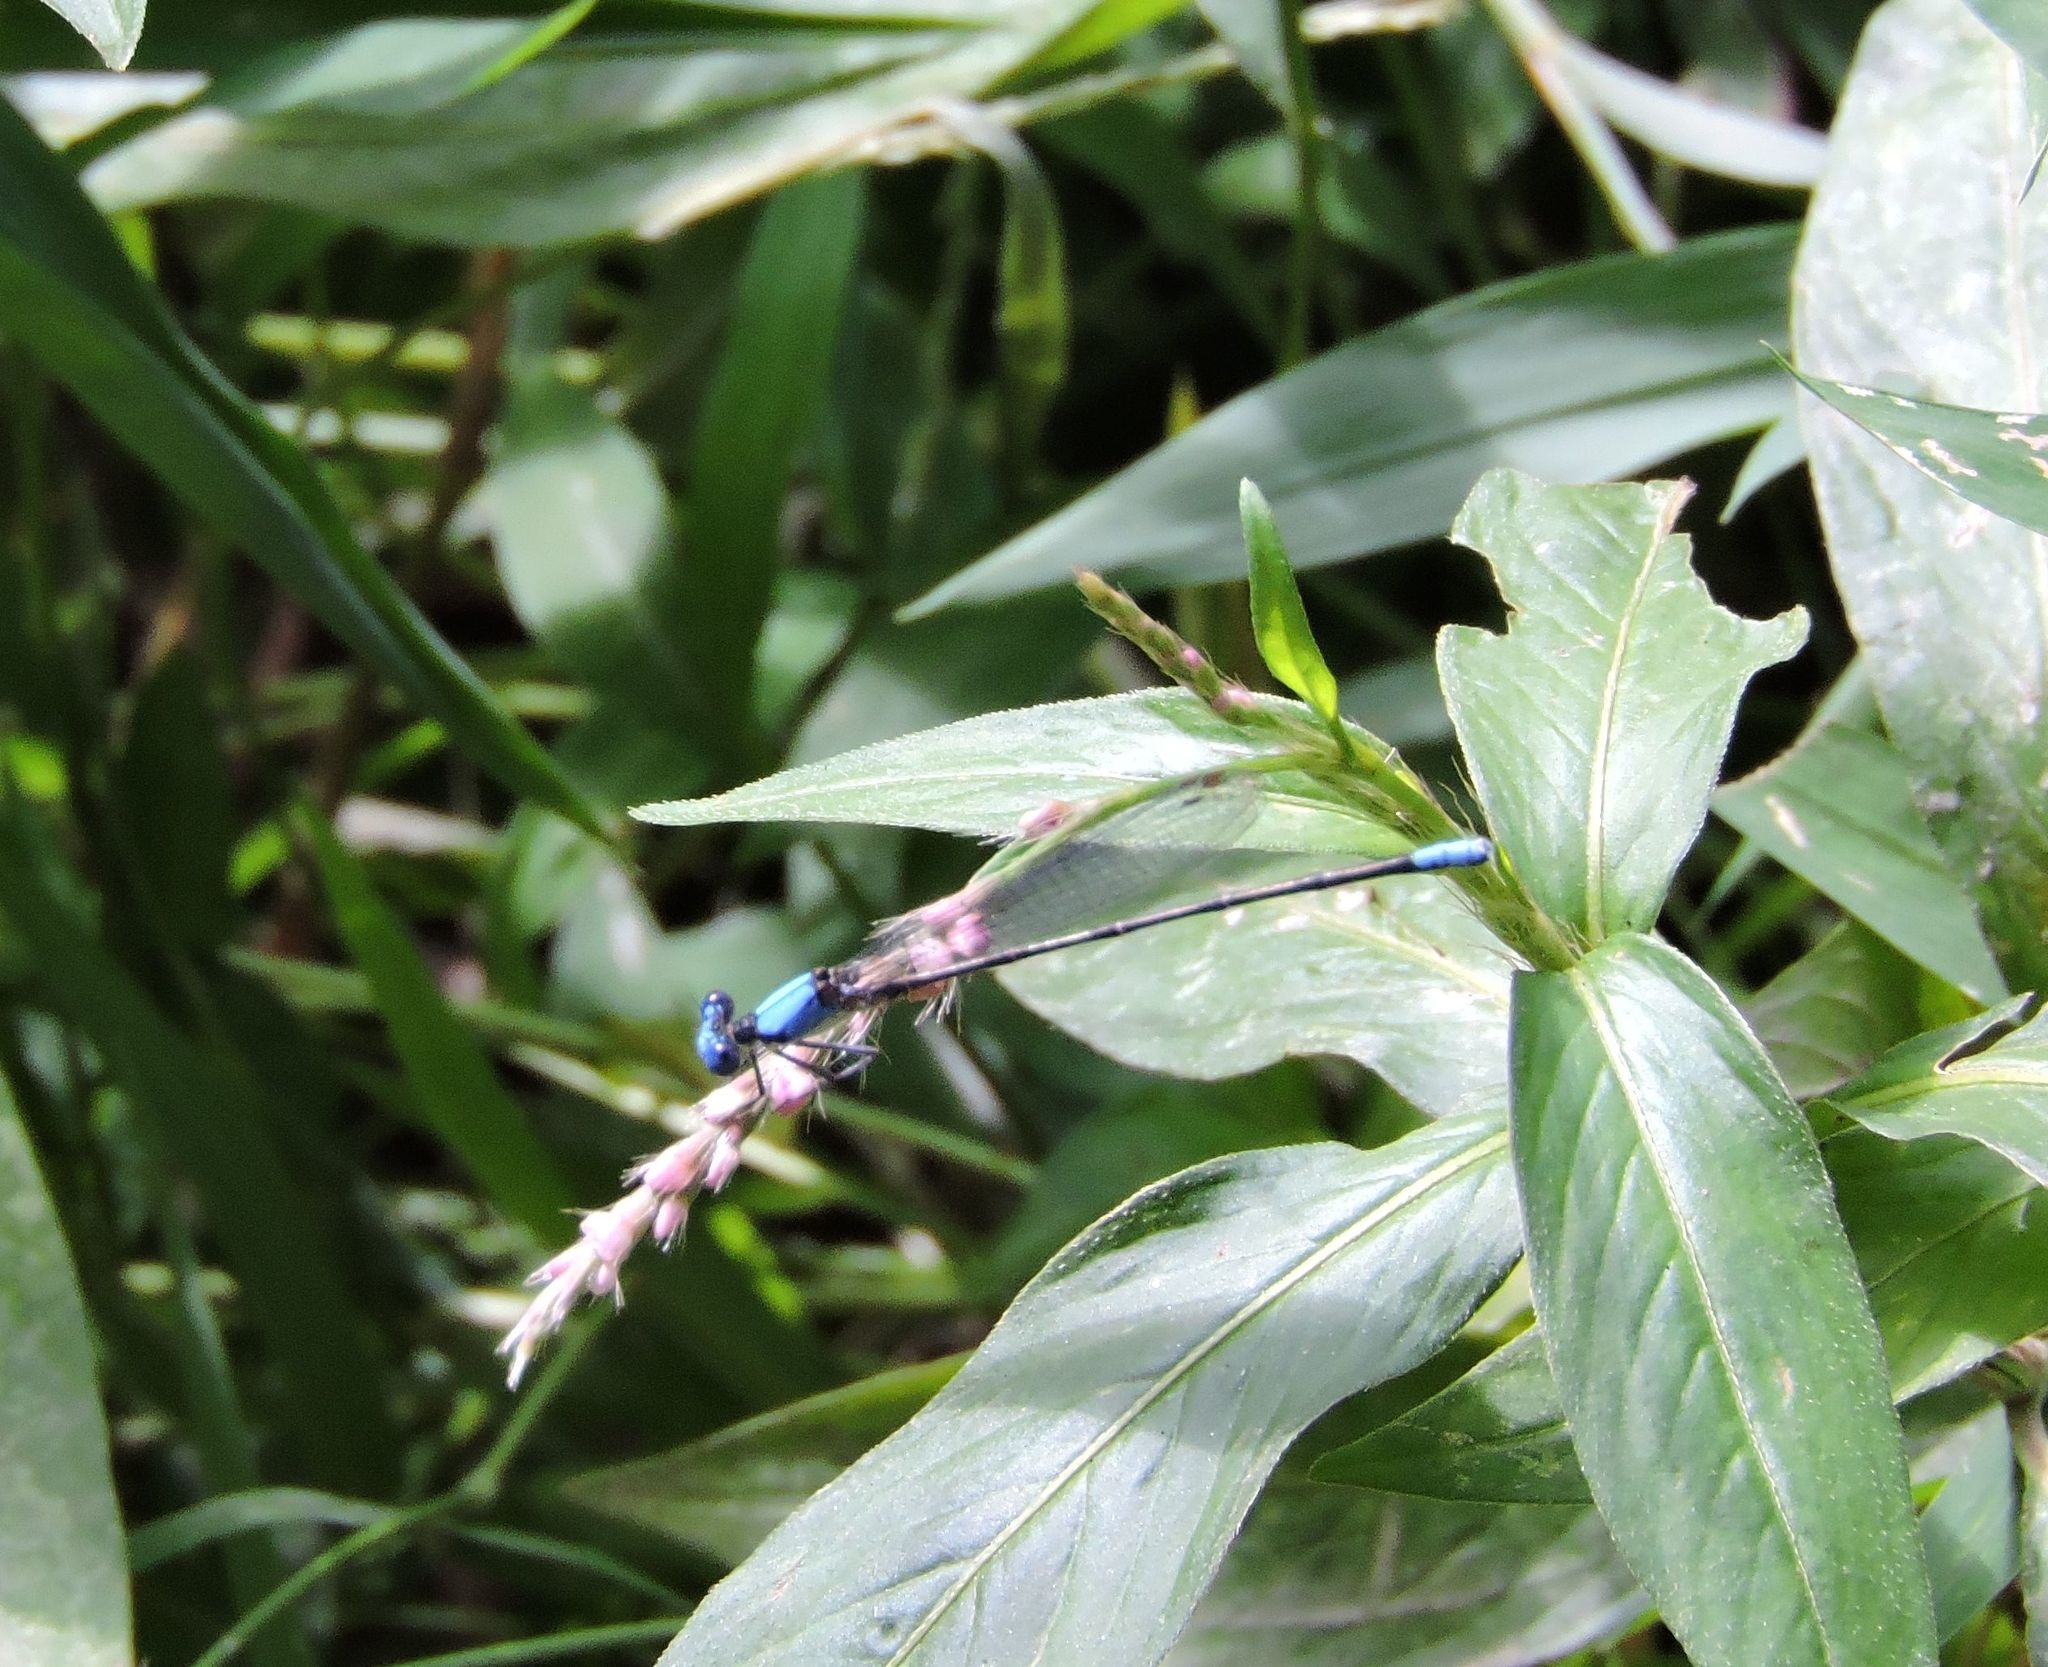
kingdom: Animalia
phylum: Arthropoda
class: Insecta
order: Odonata
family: Coenagrionidae
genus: Argia
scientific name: Argia apicalis
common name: Blue-fronted dancer
